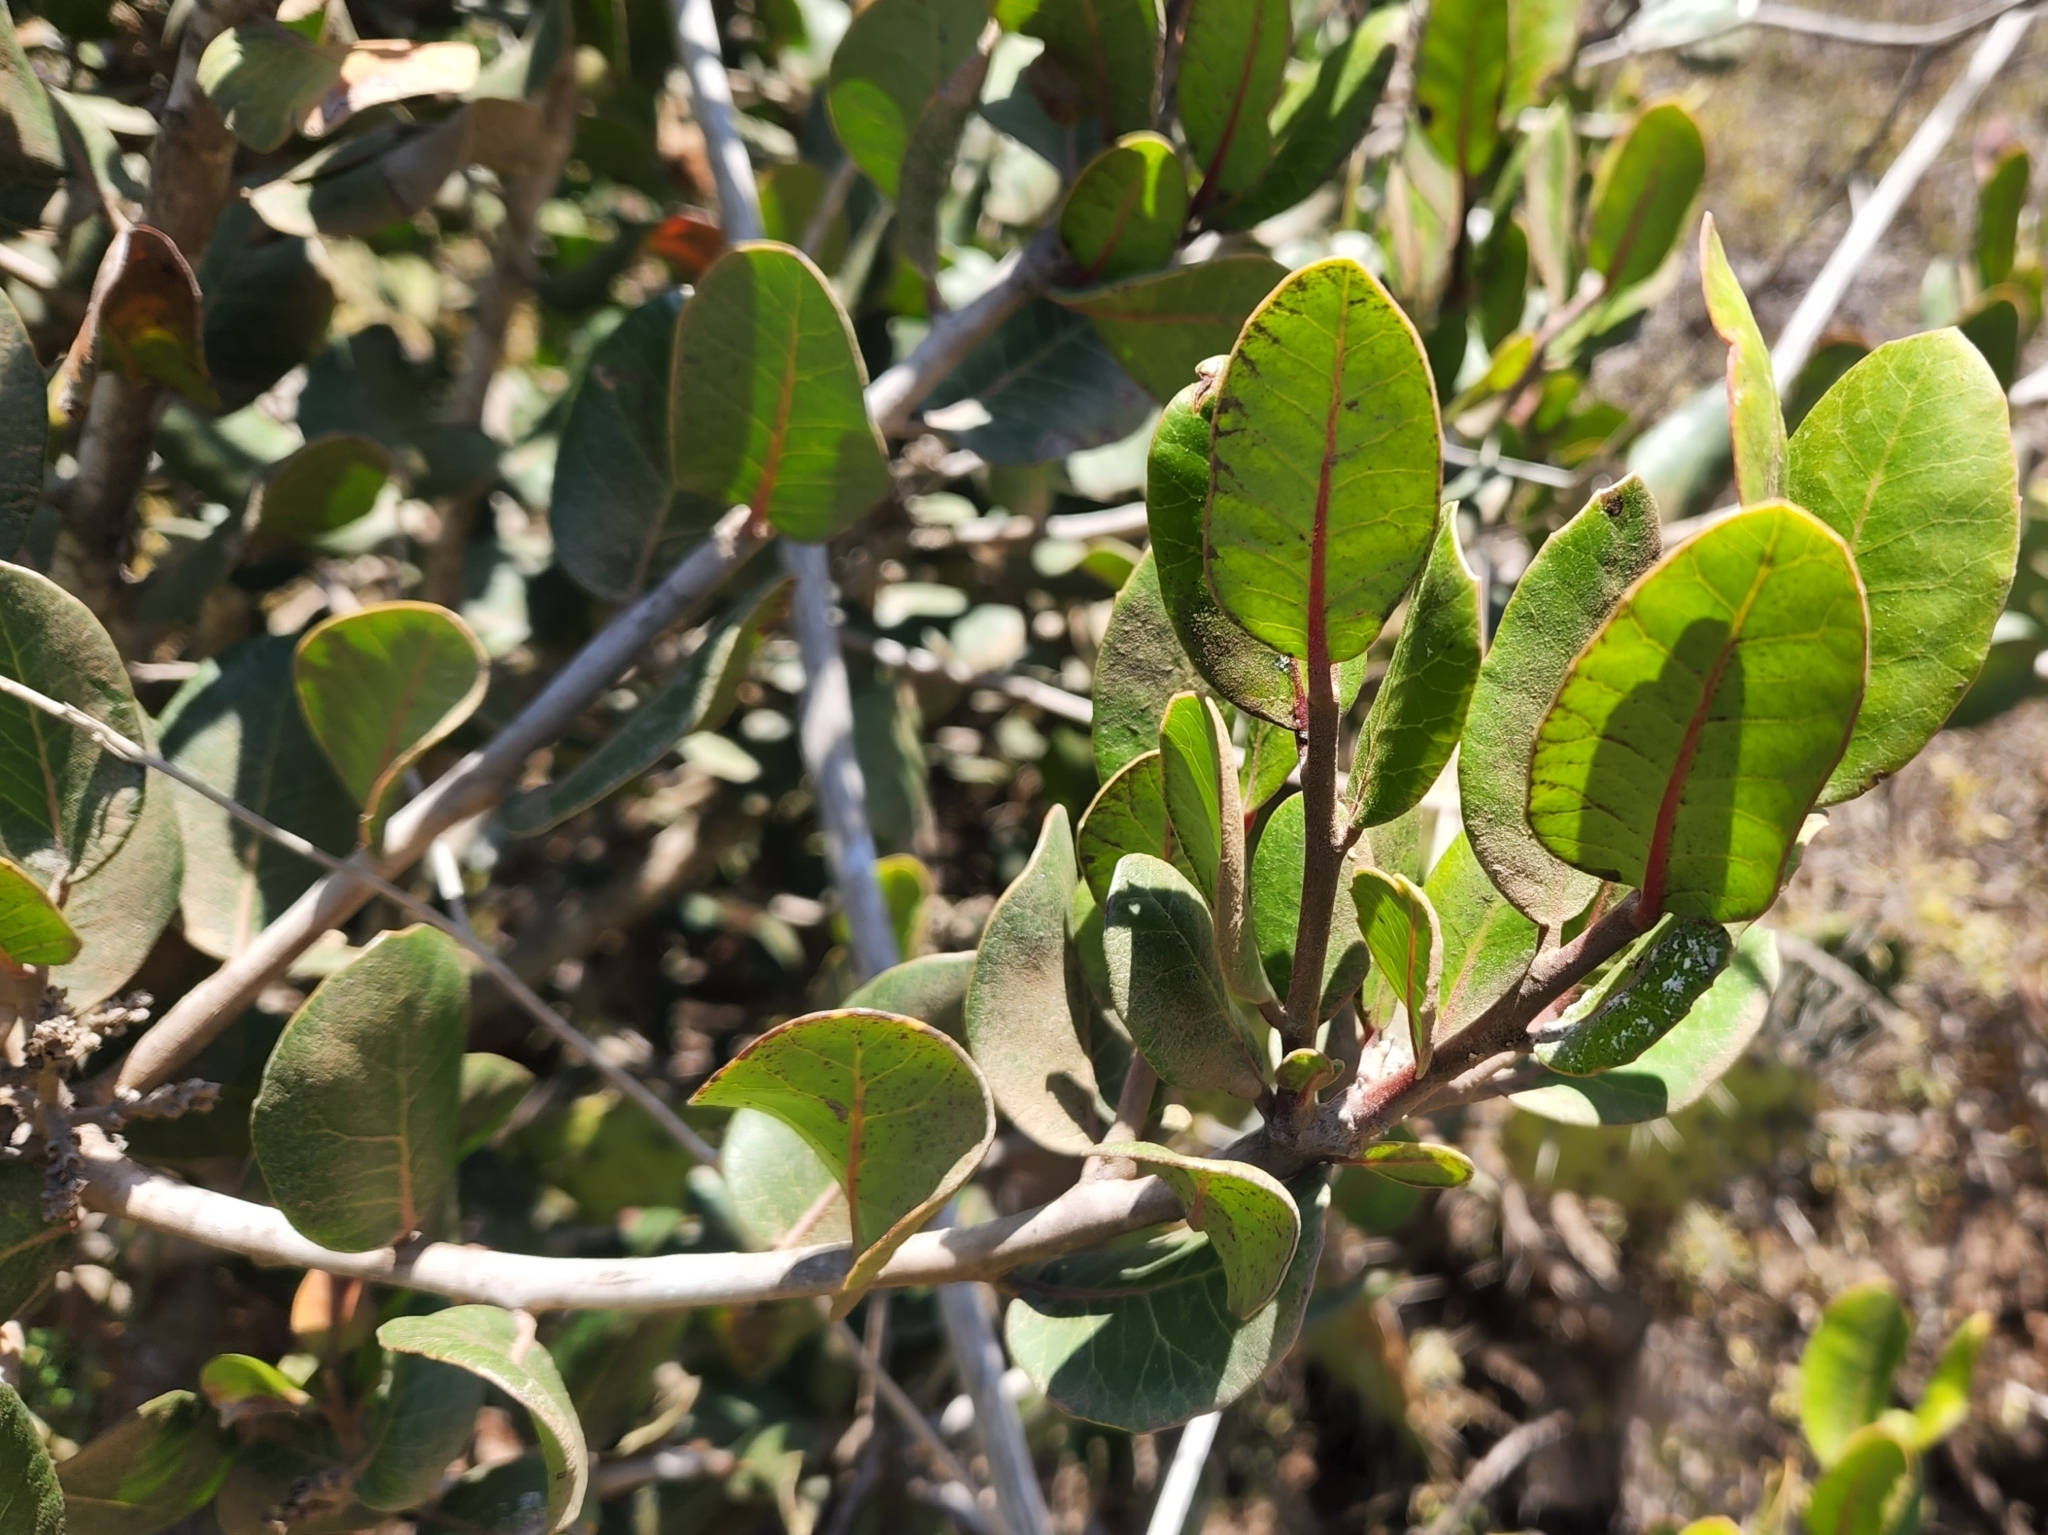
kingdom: Plantae
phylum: Tracheophyta
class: Magnoliopsida
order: Sapindales
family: Anacardiaceae
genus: Rhus
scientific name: Rhus integrifolia
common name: Lemonade sumac
